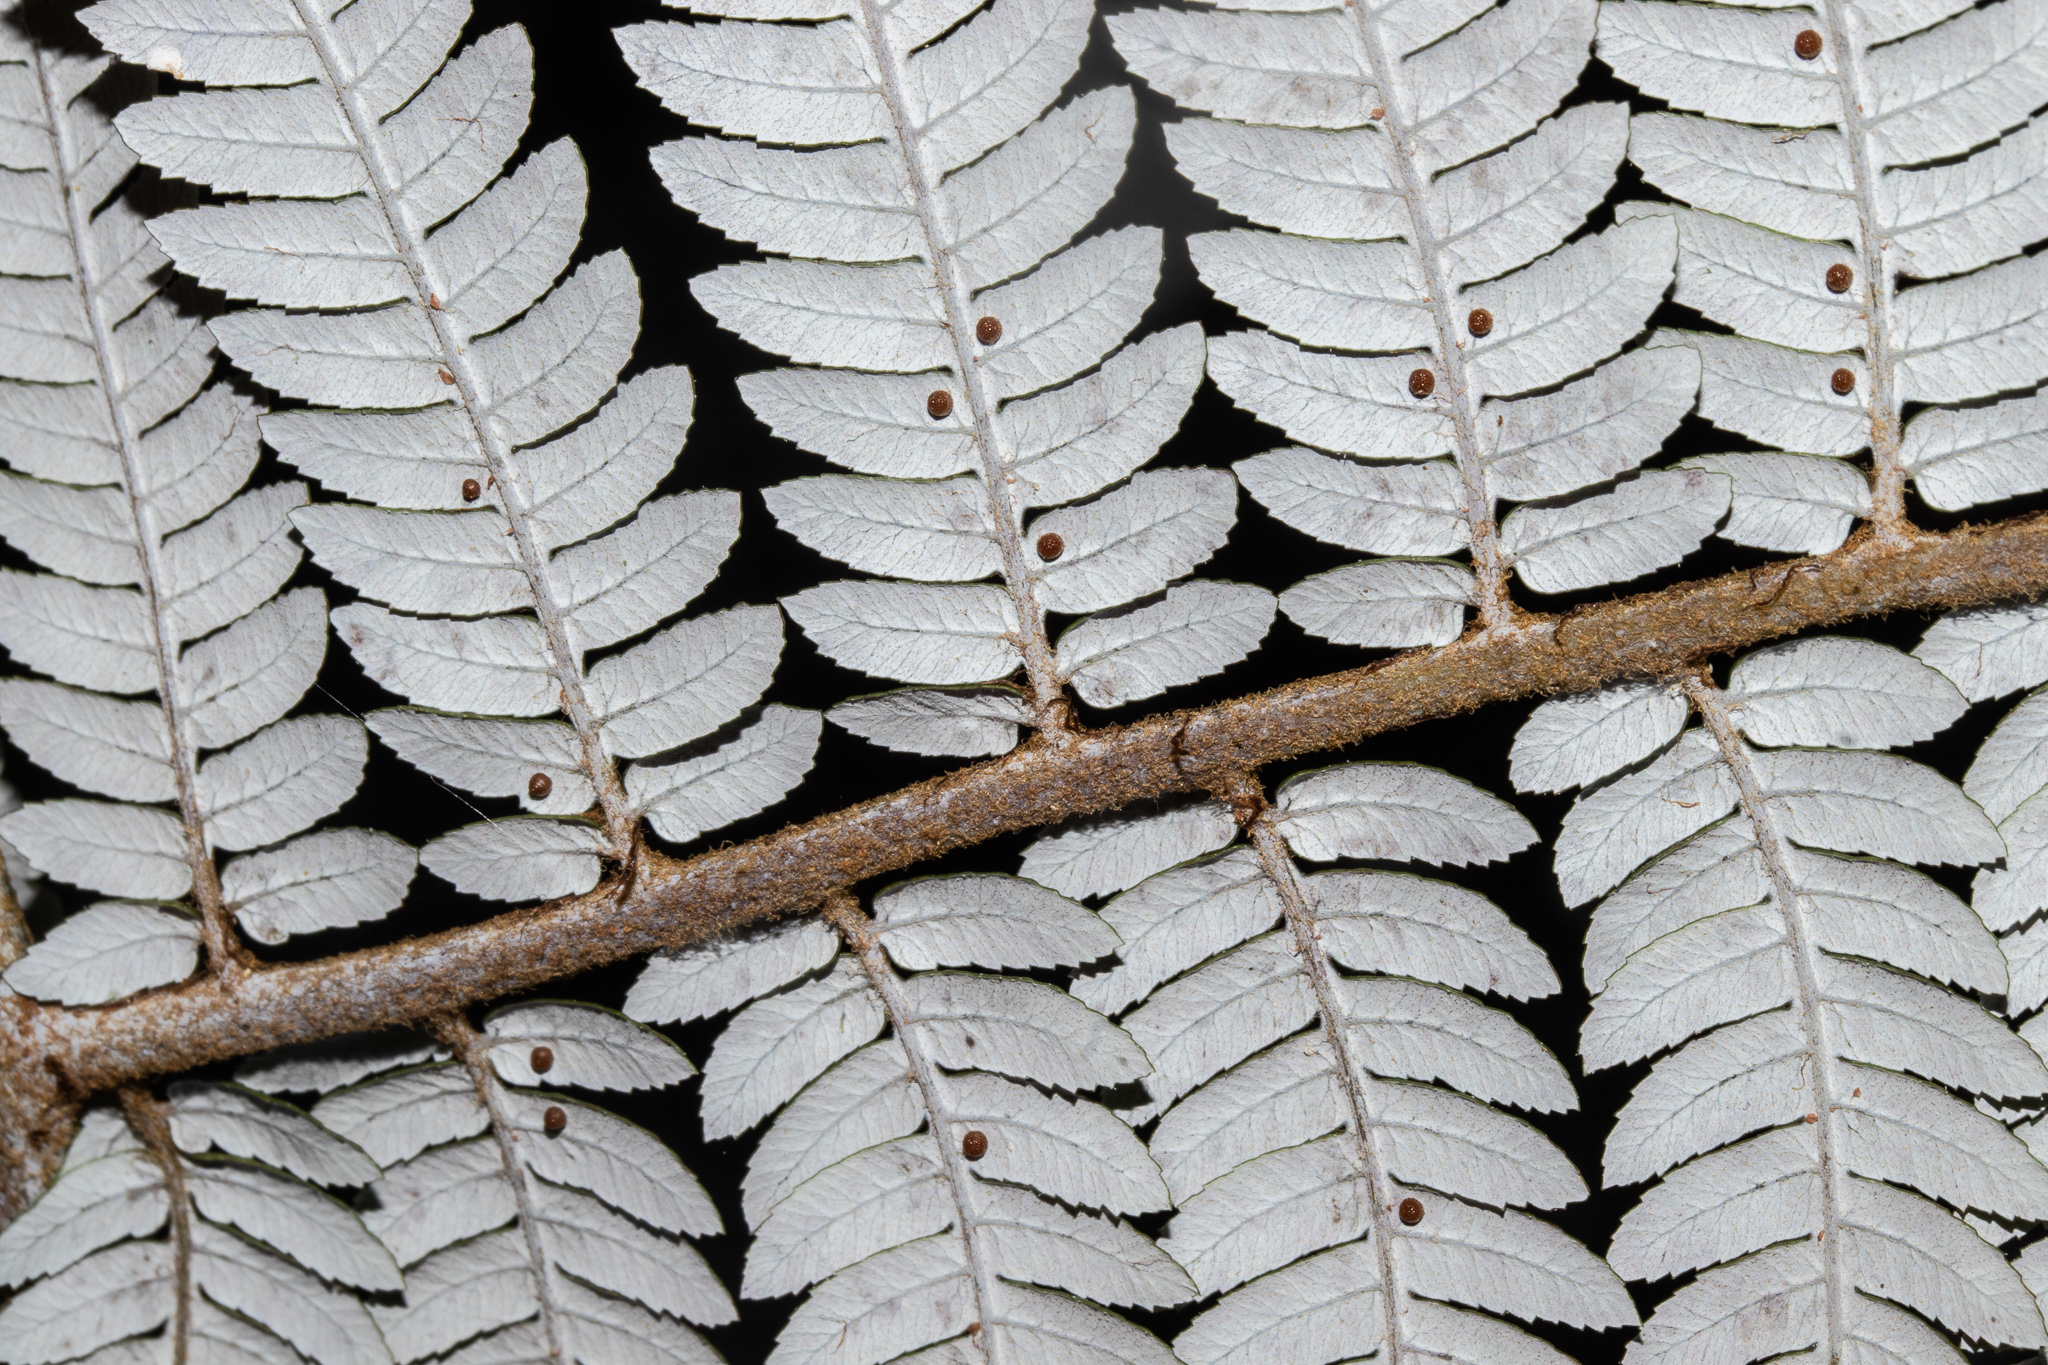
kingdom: Plantae
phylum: Tracheophyta
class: Polypodiopsida
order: Cyatheales
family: Cyatheaceae
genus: Alsophila
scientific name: Alsophila dealbata
